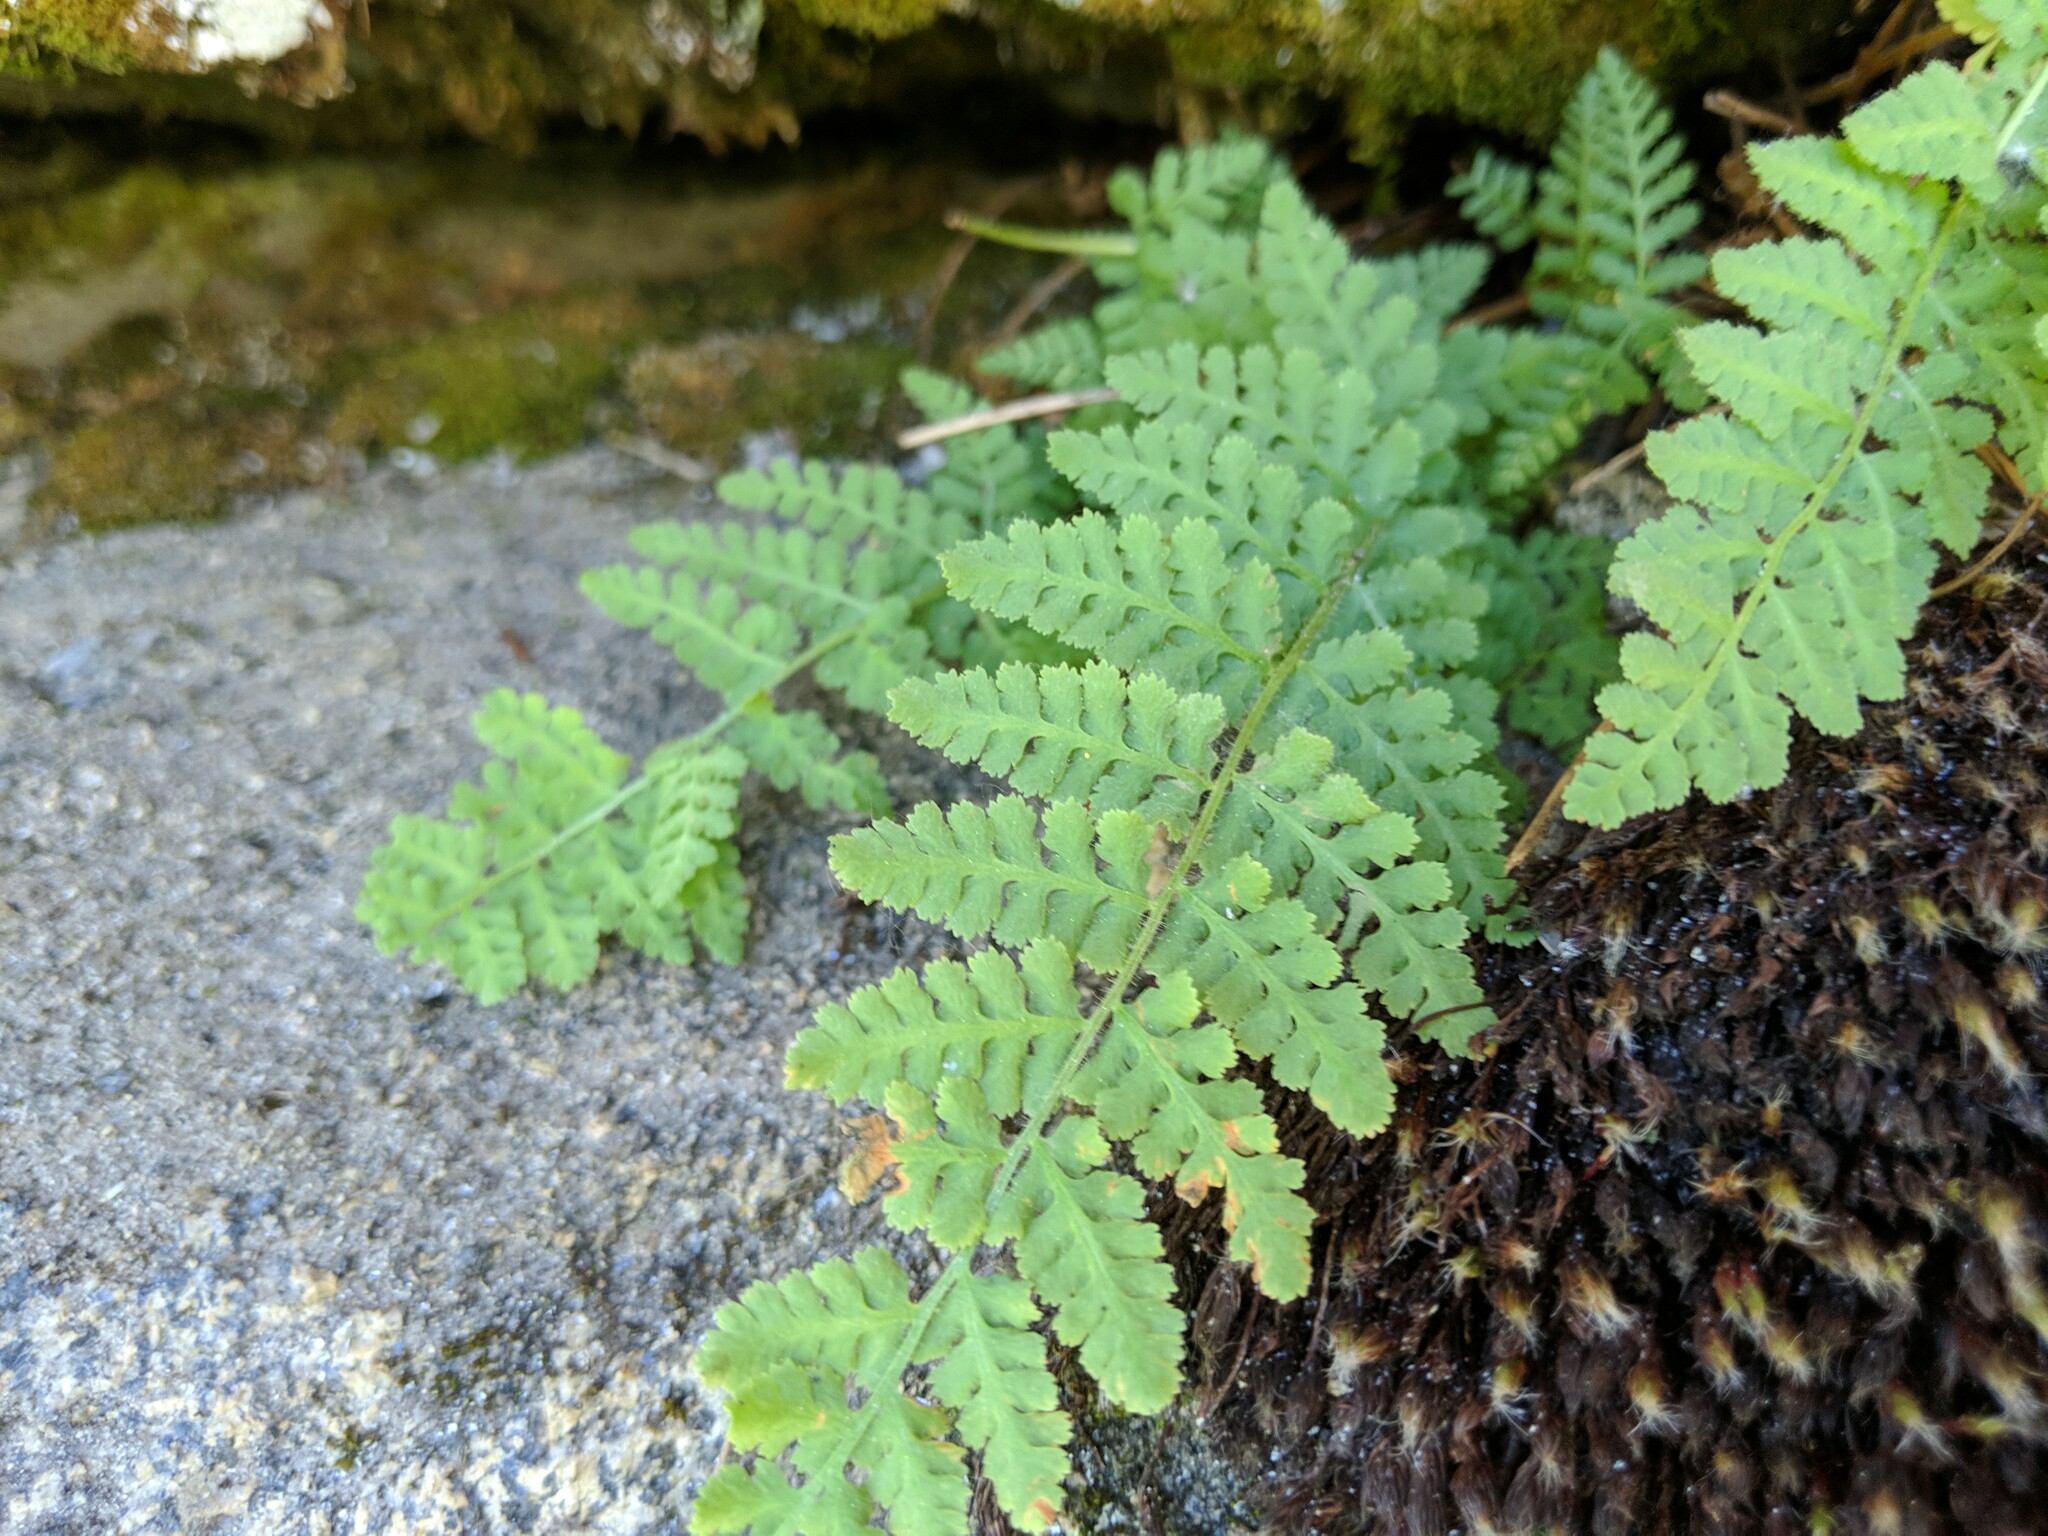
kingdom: Plantae
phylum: Tracheophyta
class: Polypodiopsida
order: Polypodiales
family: Woodsiaceae
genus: Physematium
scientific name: Physematium scopulinum
